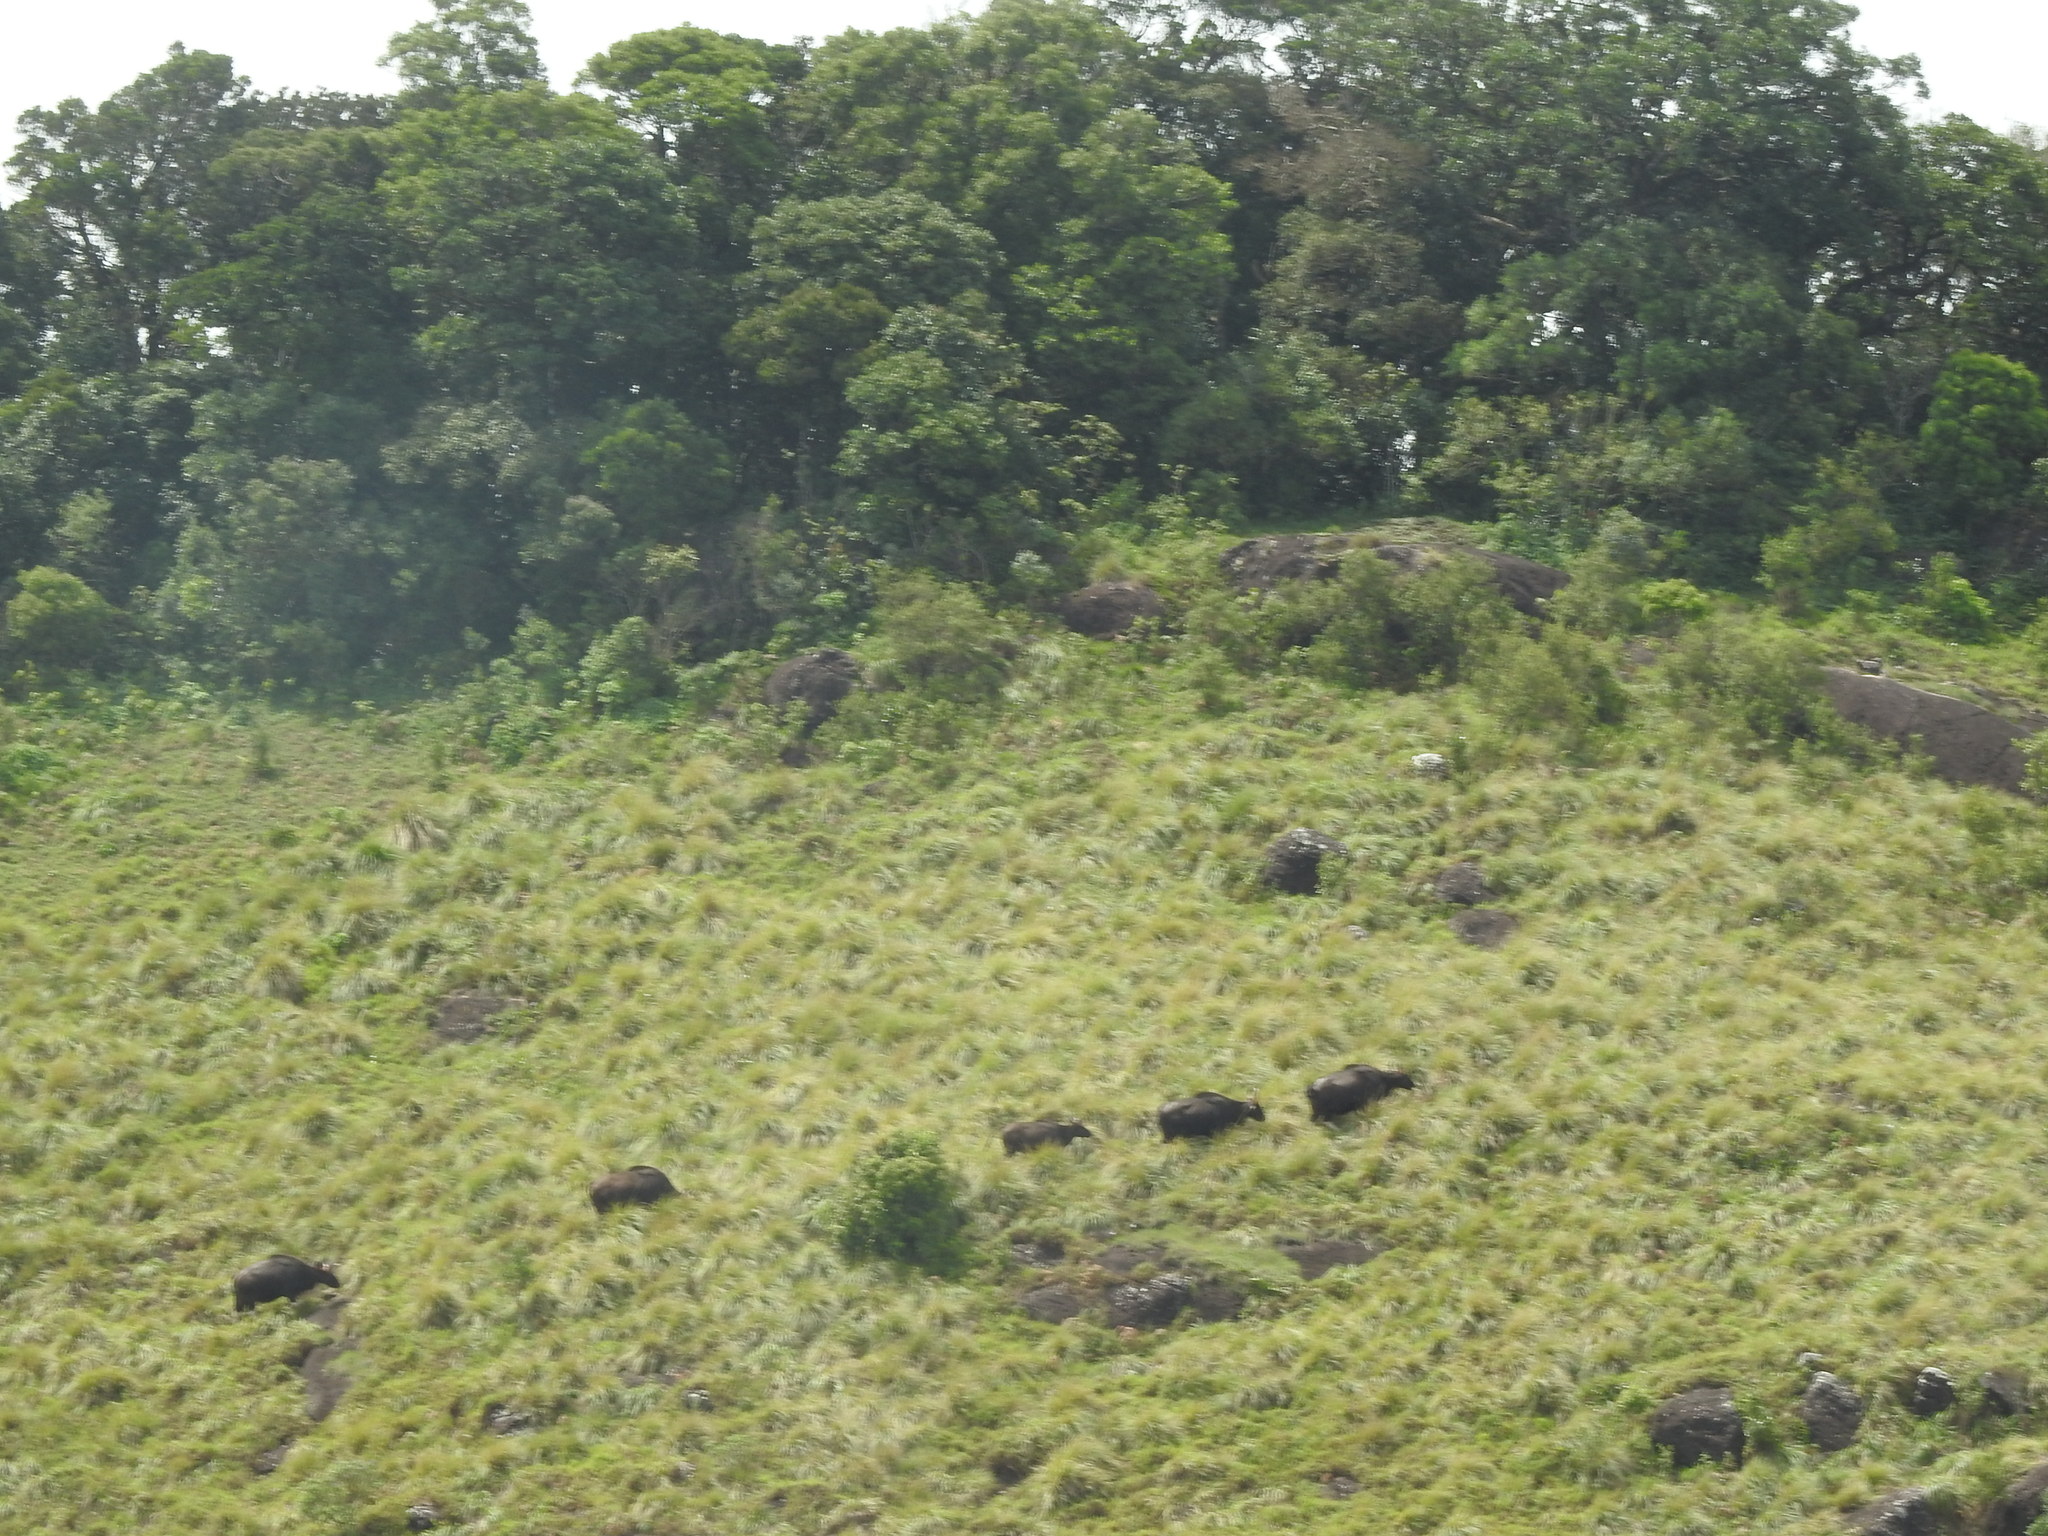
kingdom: Animalia
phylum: Chordata
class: Mammalia
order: Artiodactyla
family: Bovidae
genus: Bos
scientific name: Bos frontalis
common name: Gaur
